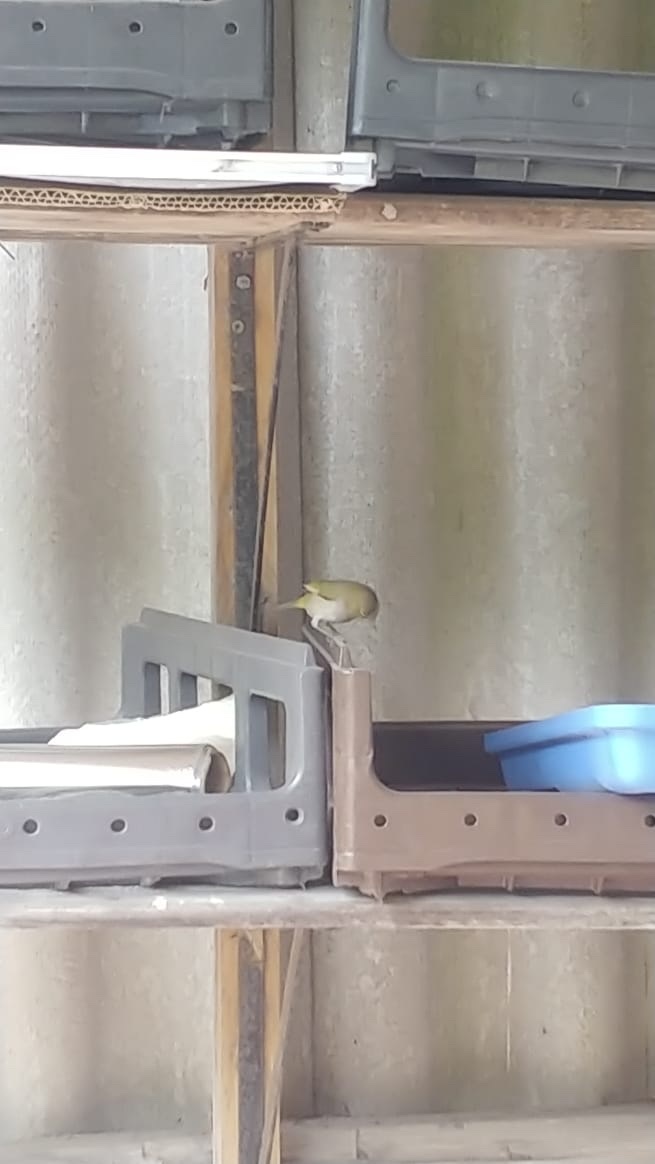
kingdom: Animalia
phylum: Chordata
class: Aves
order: Passeriformes
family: Zosteropidae
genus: Zosterops
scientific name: Zosterops virens
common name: Cape white-eye
